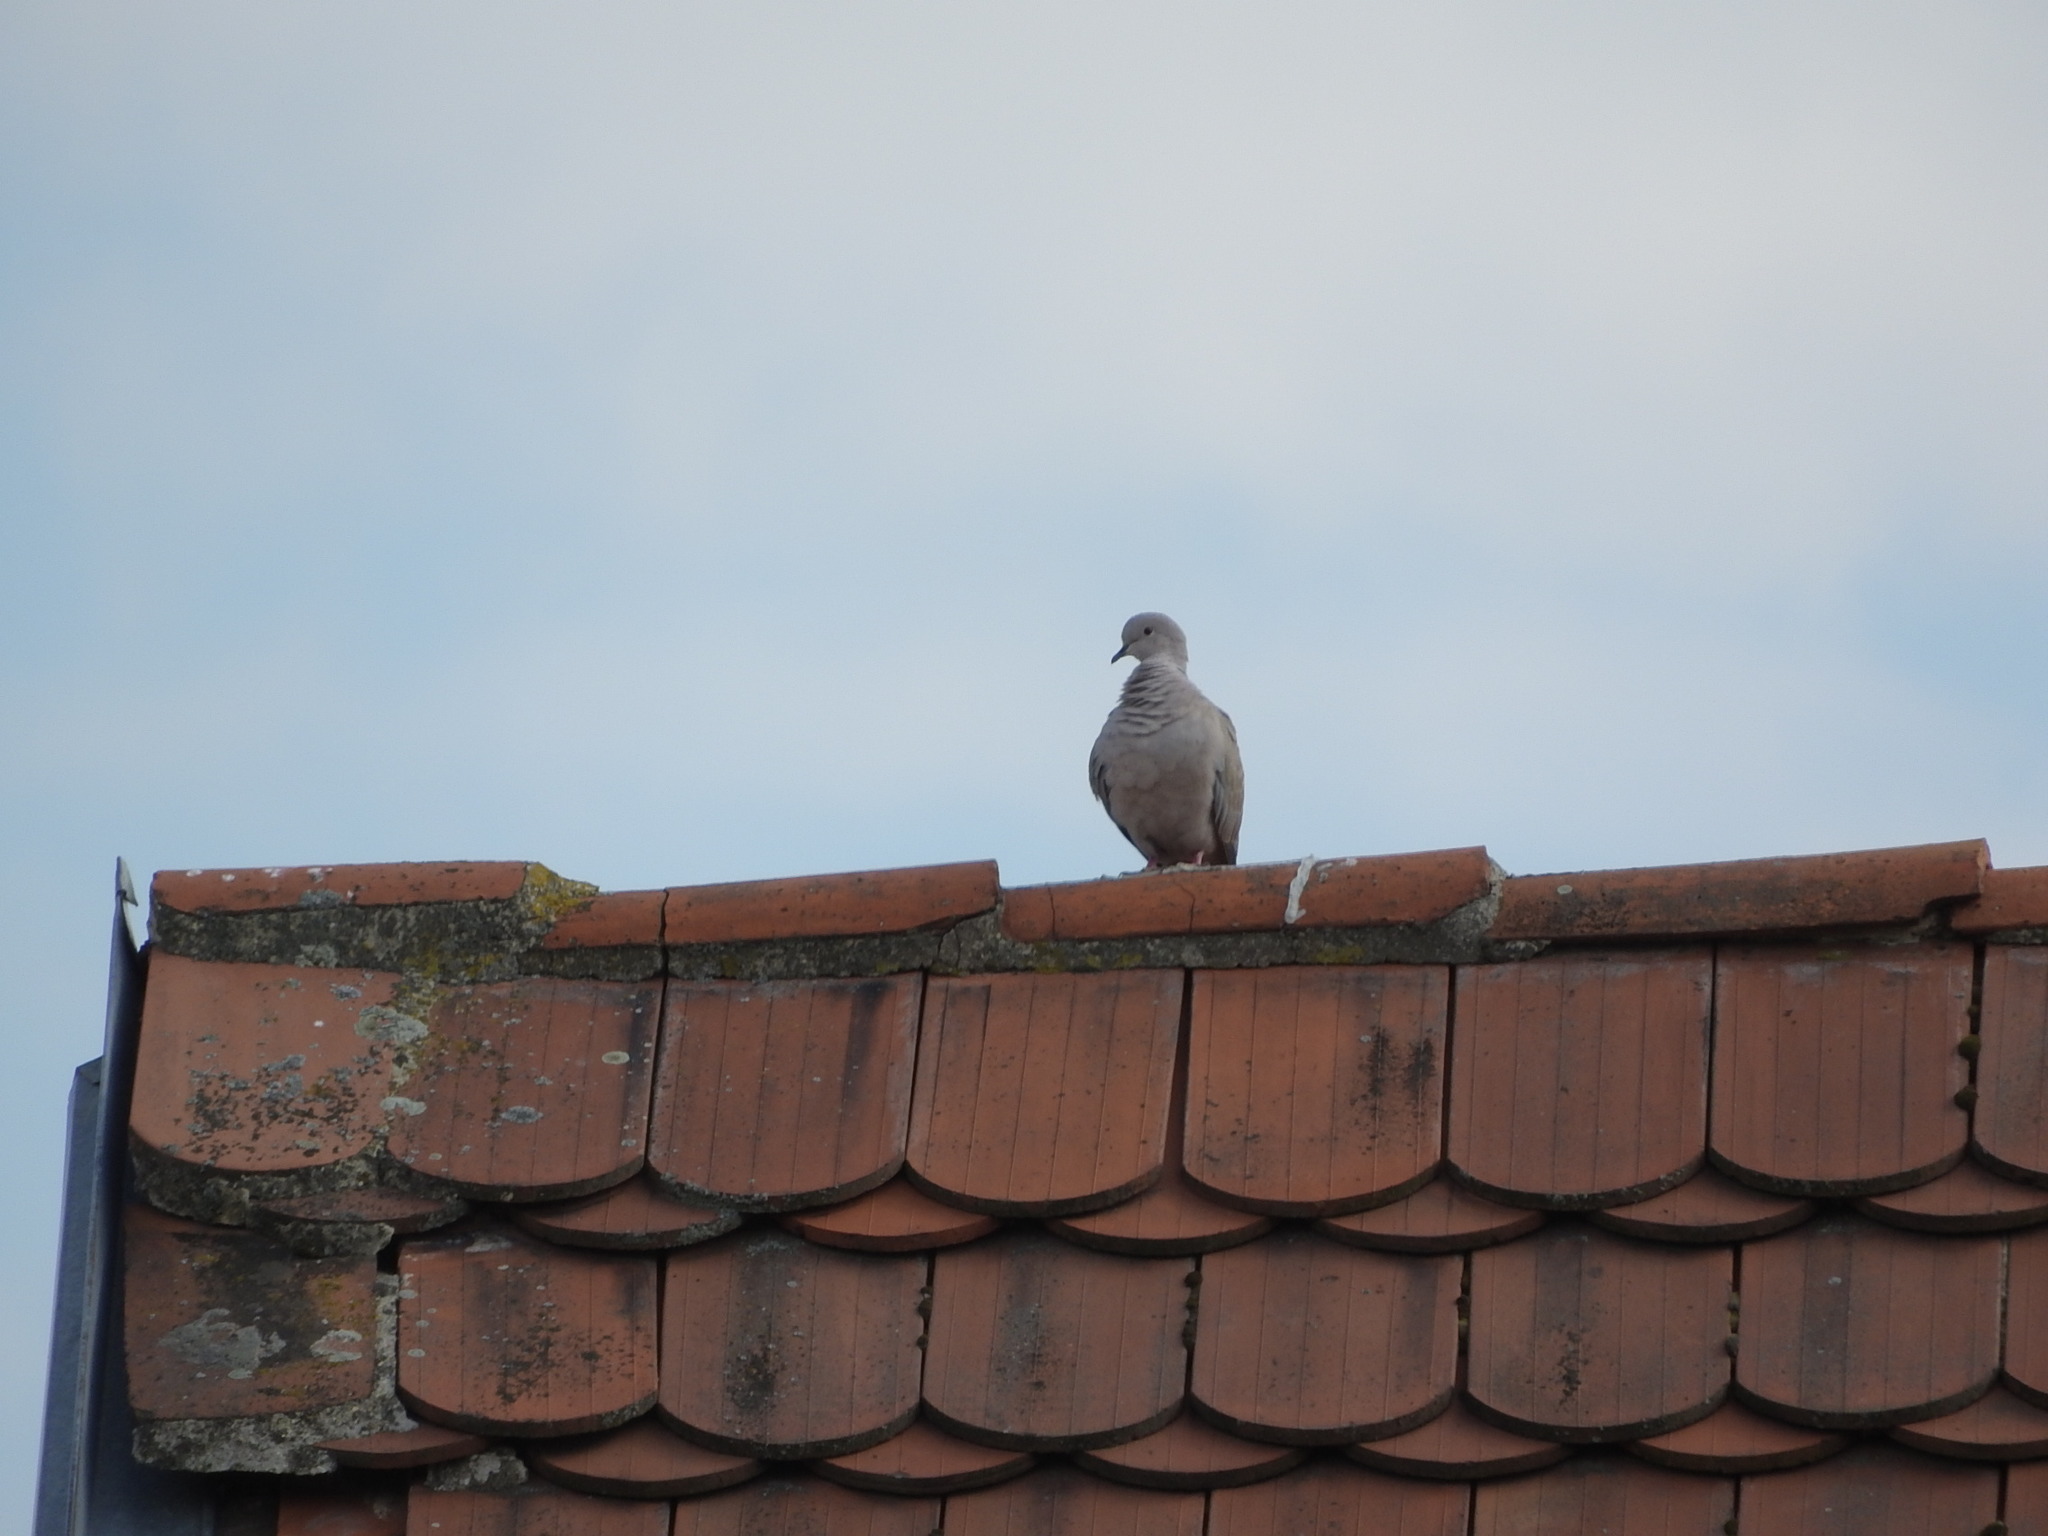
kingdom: Animalia
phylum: Chordata
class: Aves
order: Columbiformes
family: Columbidae
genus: Streptopelia
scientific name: Streptopelia decaocto
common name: Eurasian collared dove
